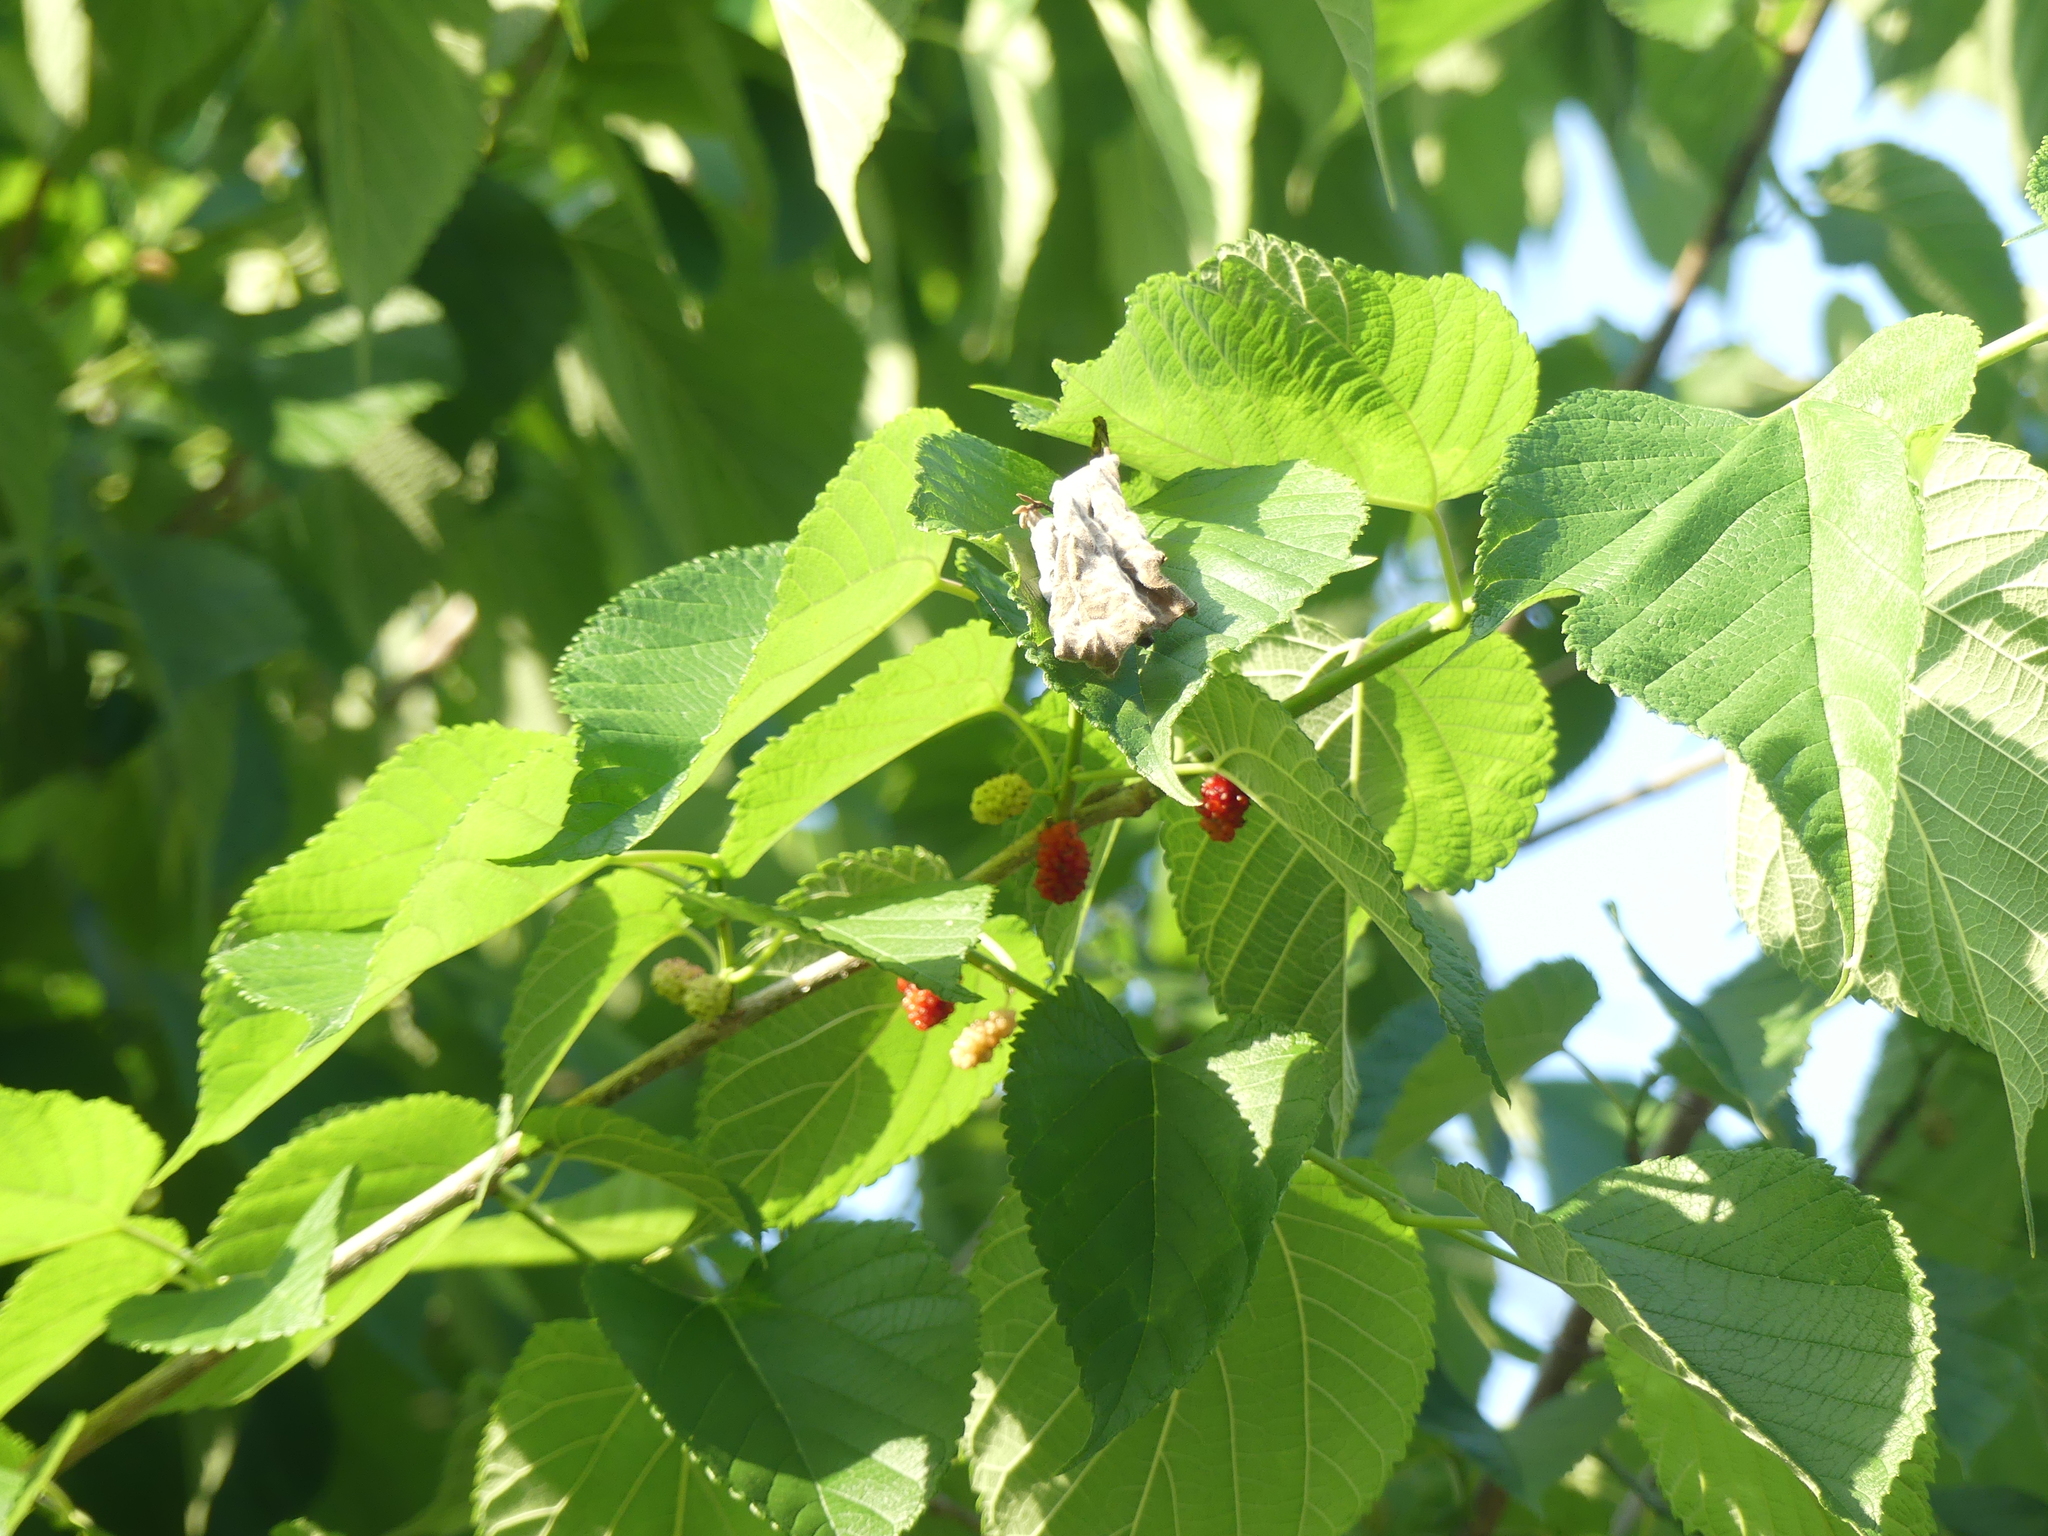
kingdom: Plantae
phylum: Tracheophyta
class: Magnoliopsida
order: Rosales
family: Moraceae
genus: Morus
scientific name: Morus rubra
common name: Red mulberry
